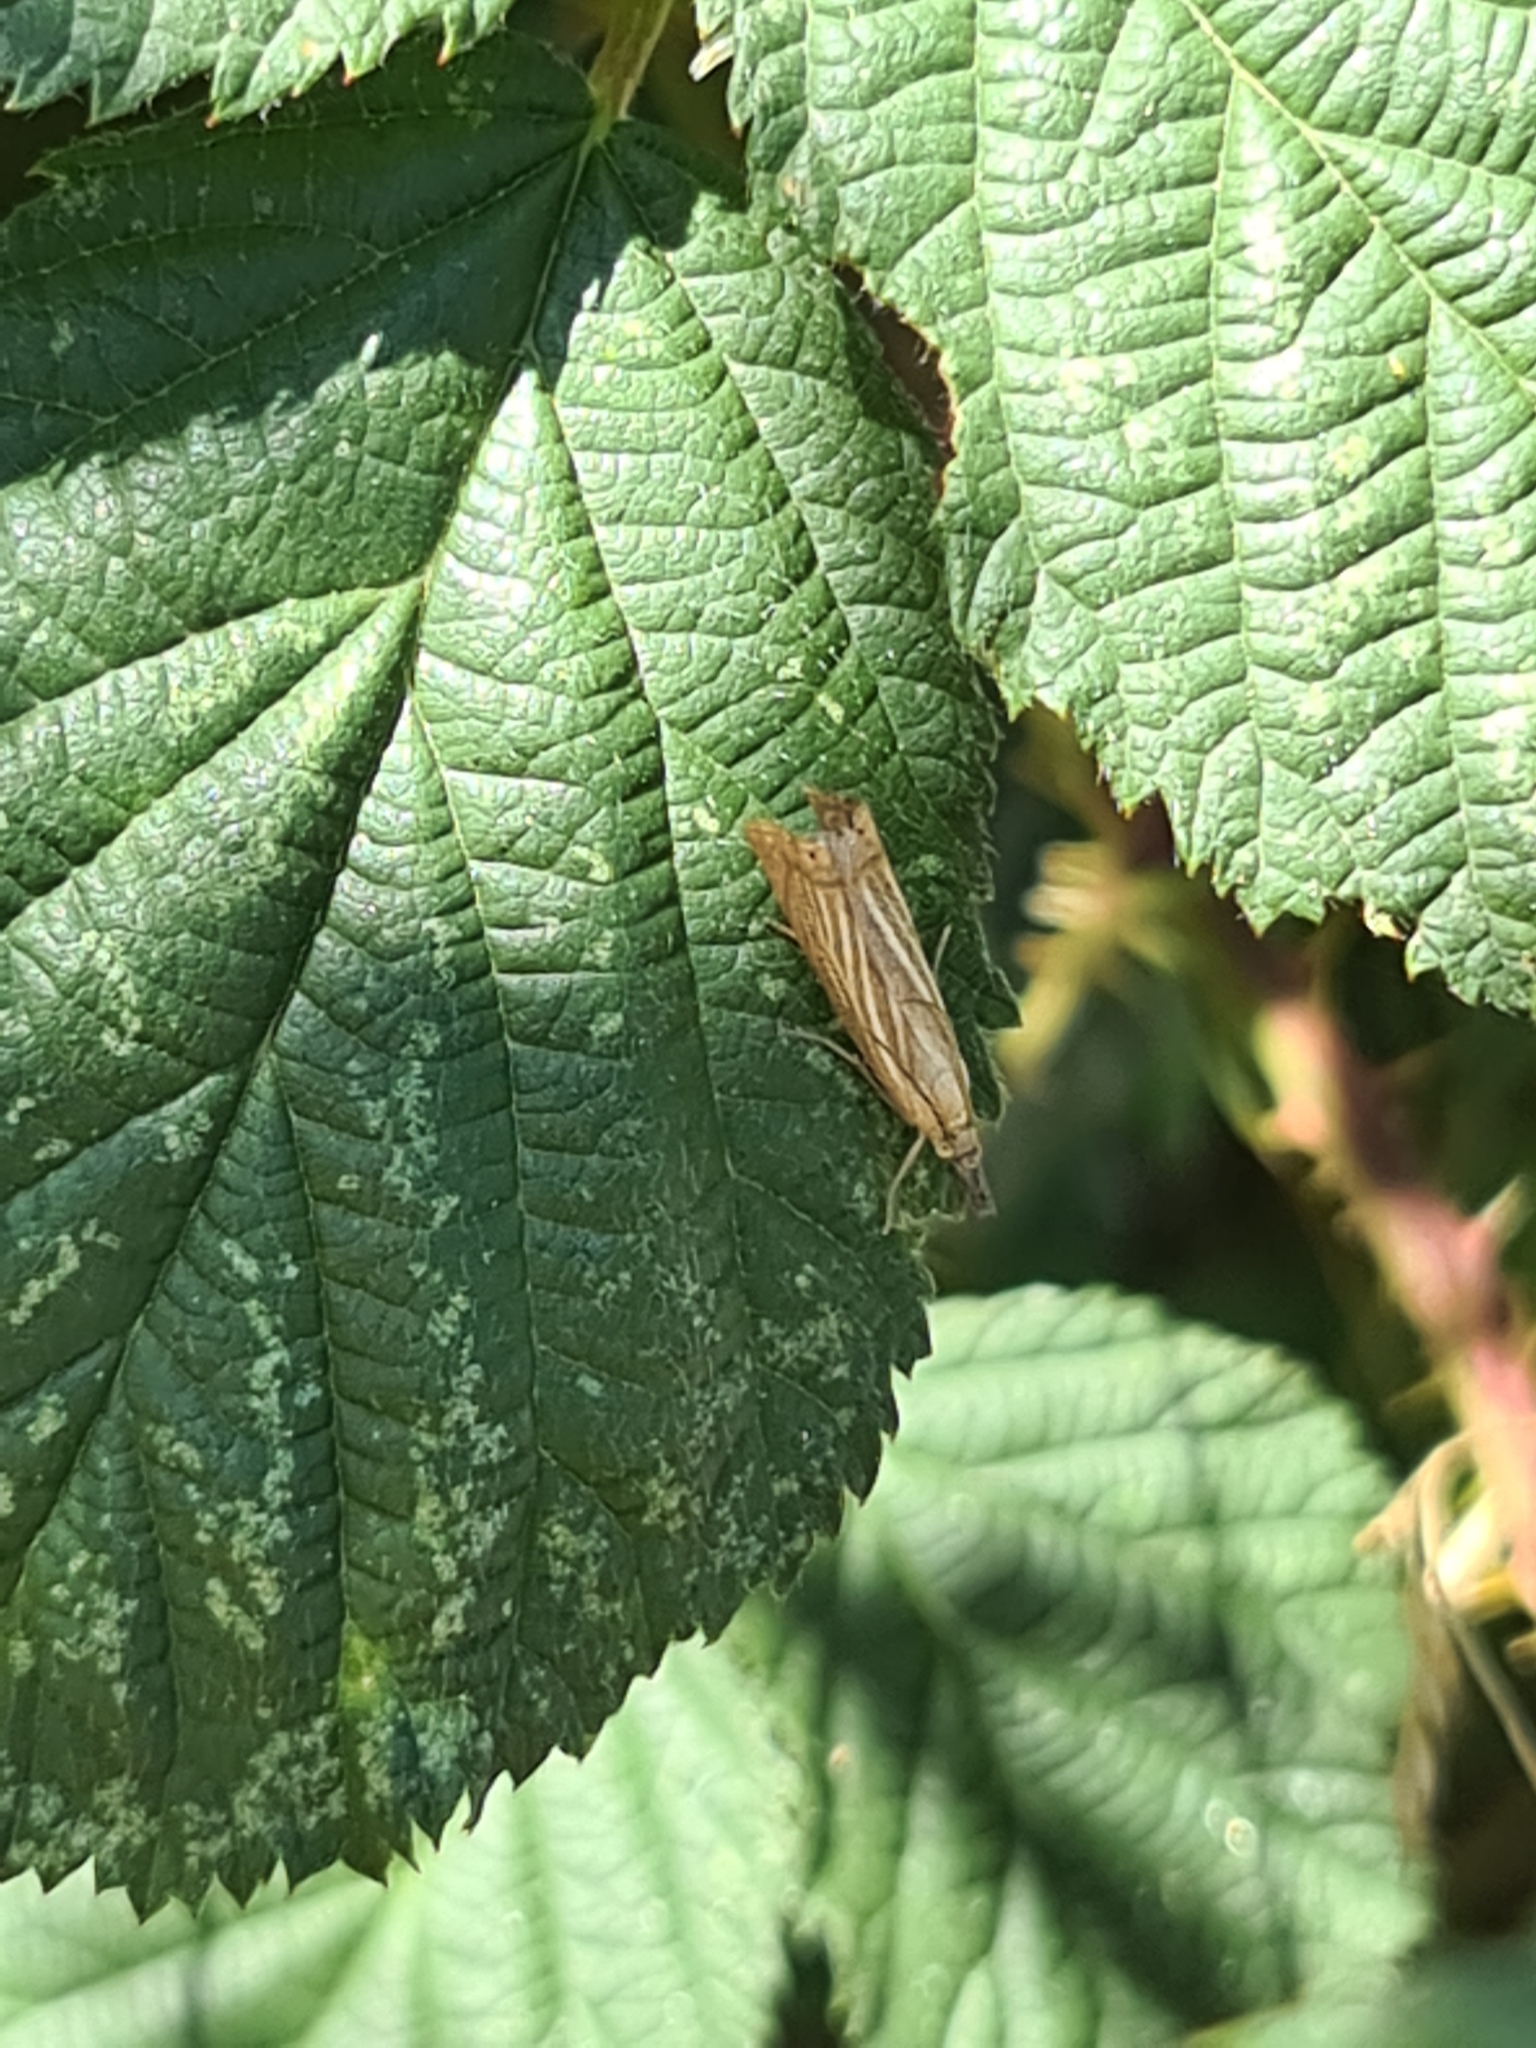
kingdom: Animalia
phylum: Arthropoda
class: Insecta
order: Lepidoptera
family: Crambidae
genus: Chrysoteuchia
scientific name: Chrysoteuchia culmella
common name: Garden grass-veneer
